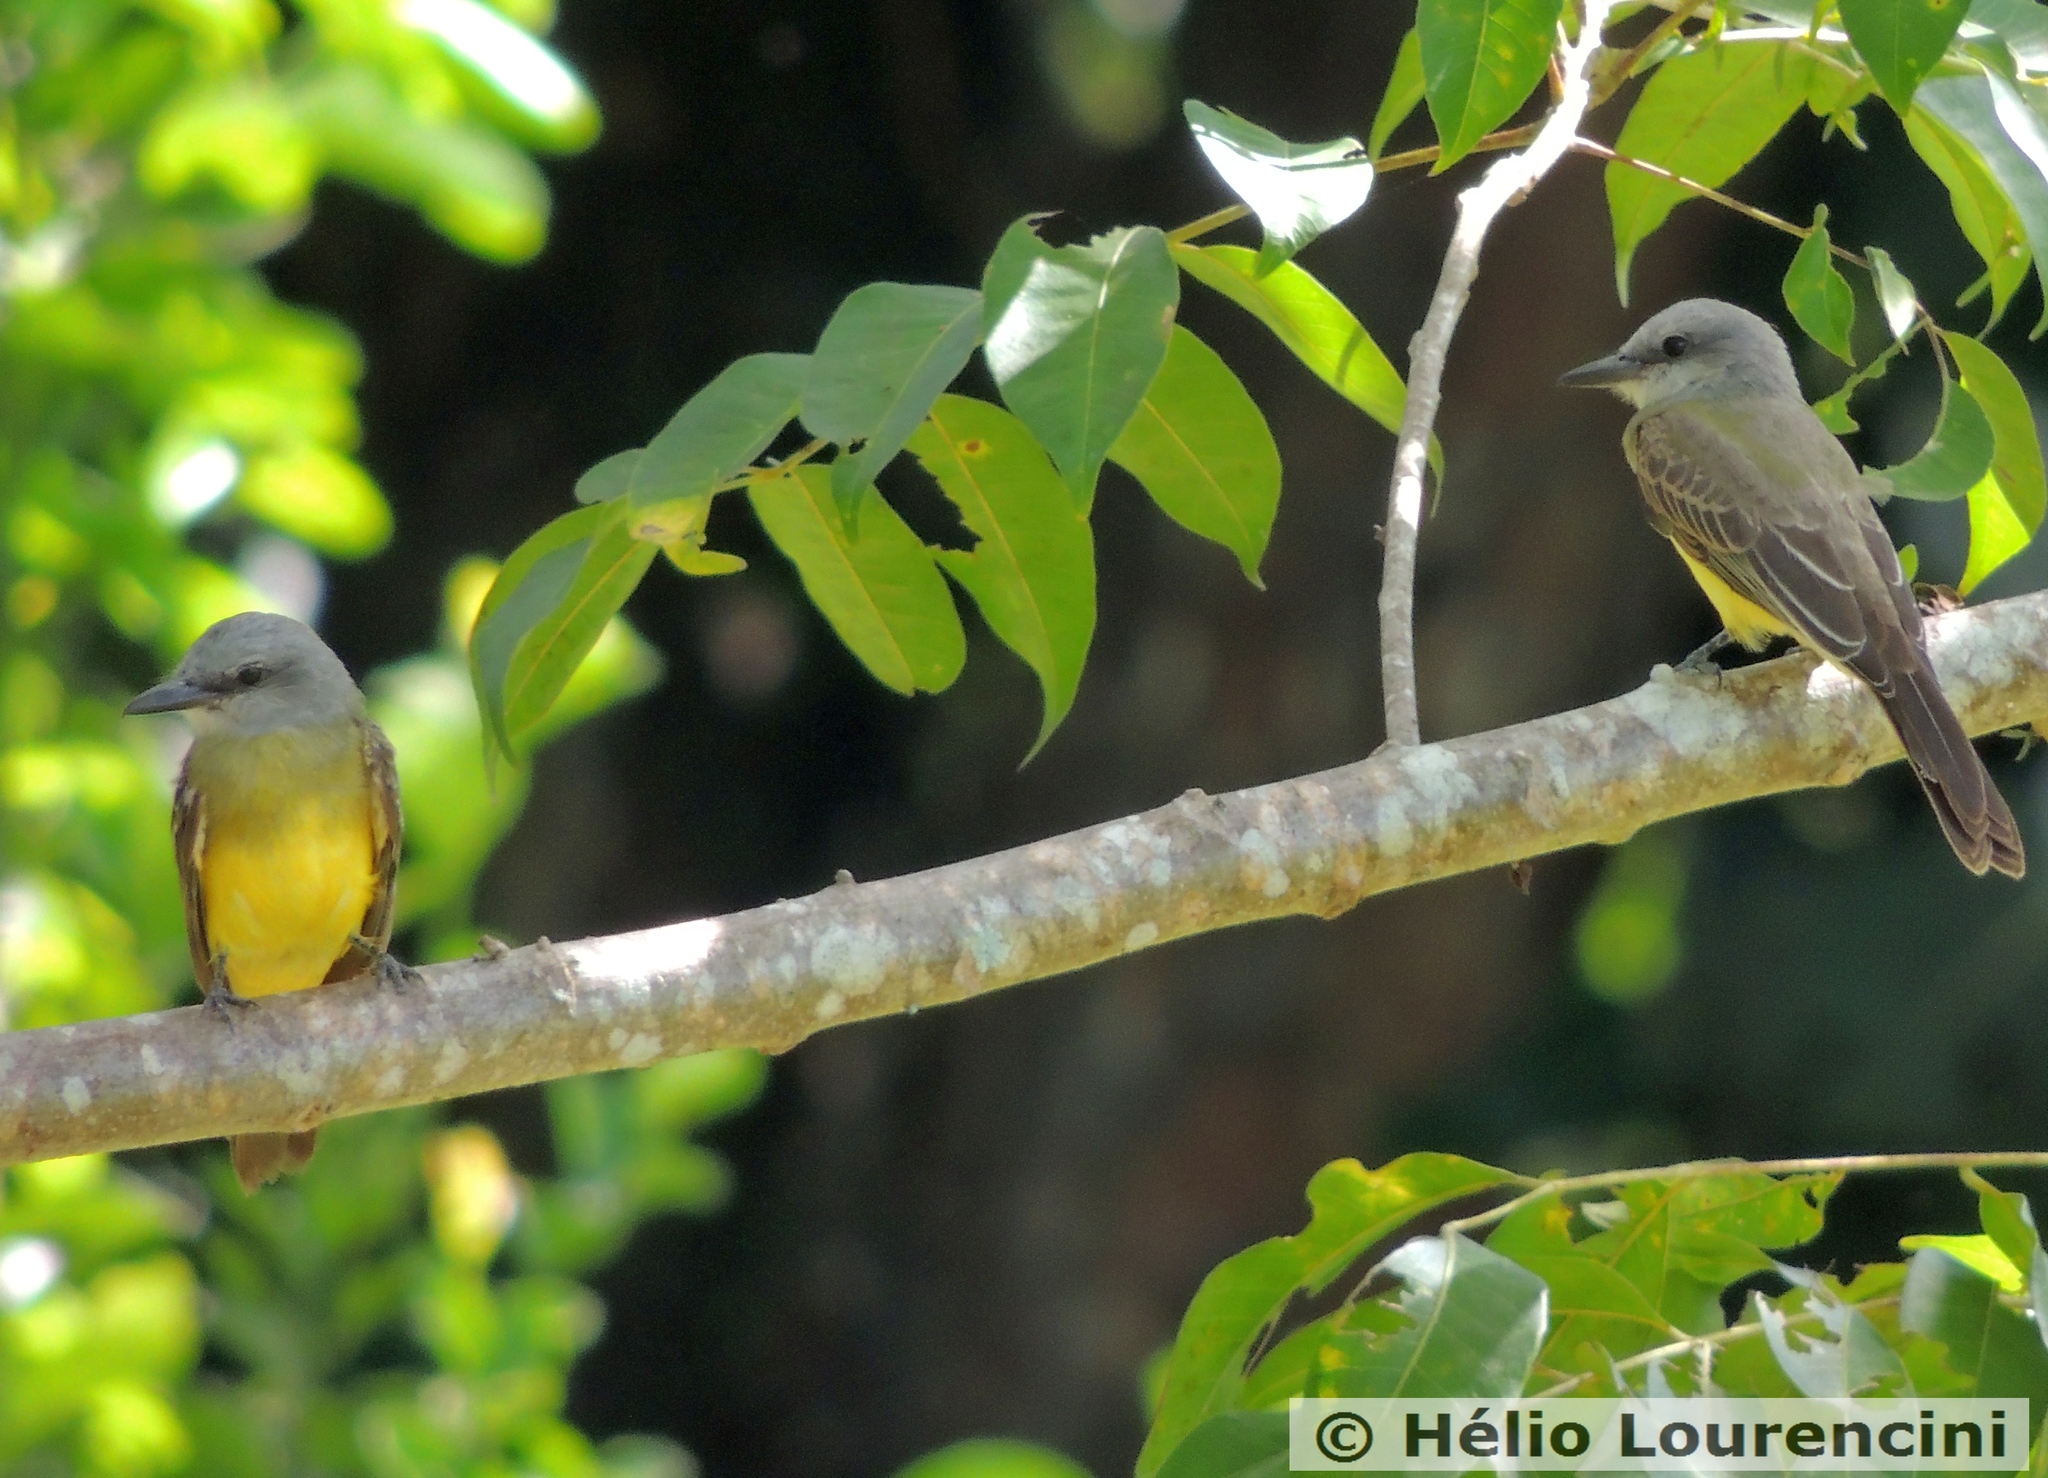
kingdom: Animalia
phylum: Chordata
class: Aves
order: Passeriformes
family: Tyrannidae
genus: Tyrannus
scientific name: Tyrannus melancholicus
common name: Tropical kingbird
